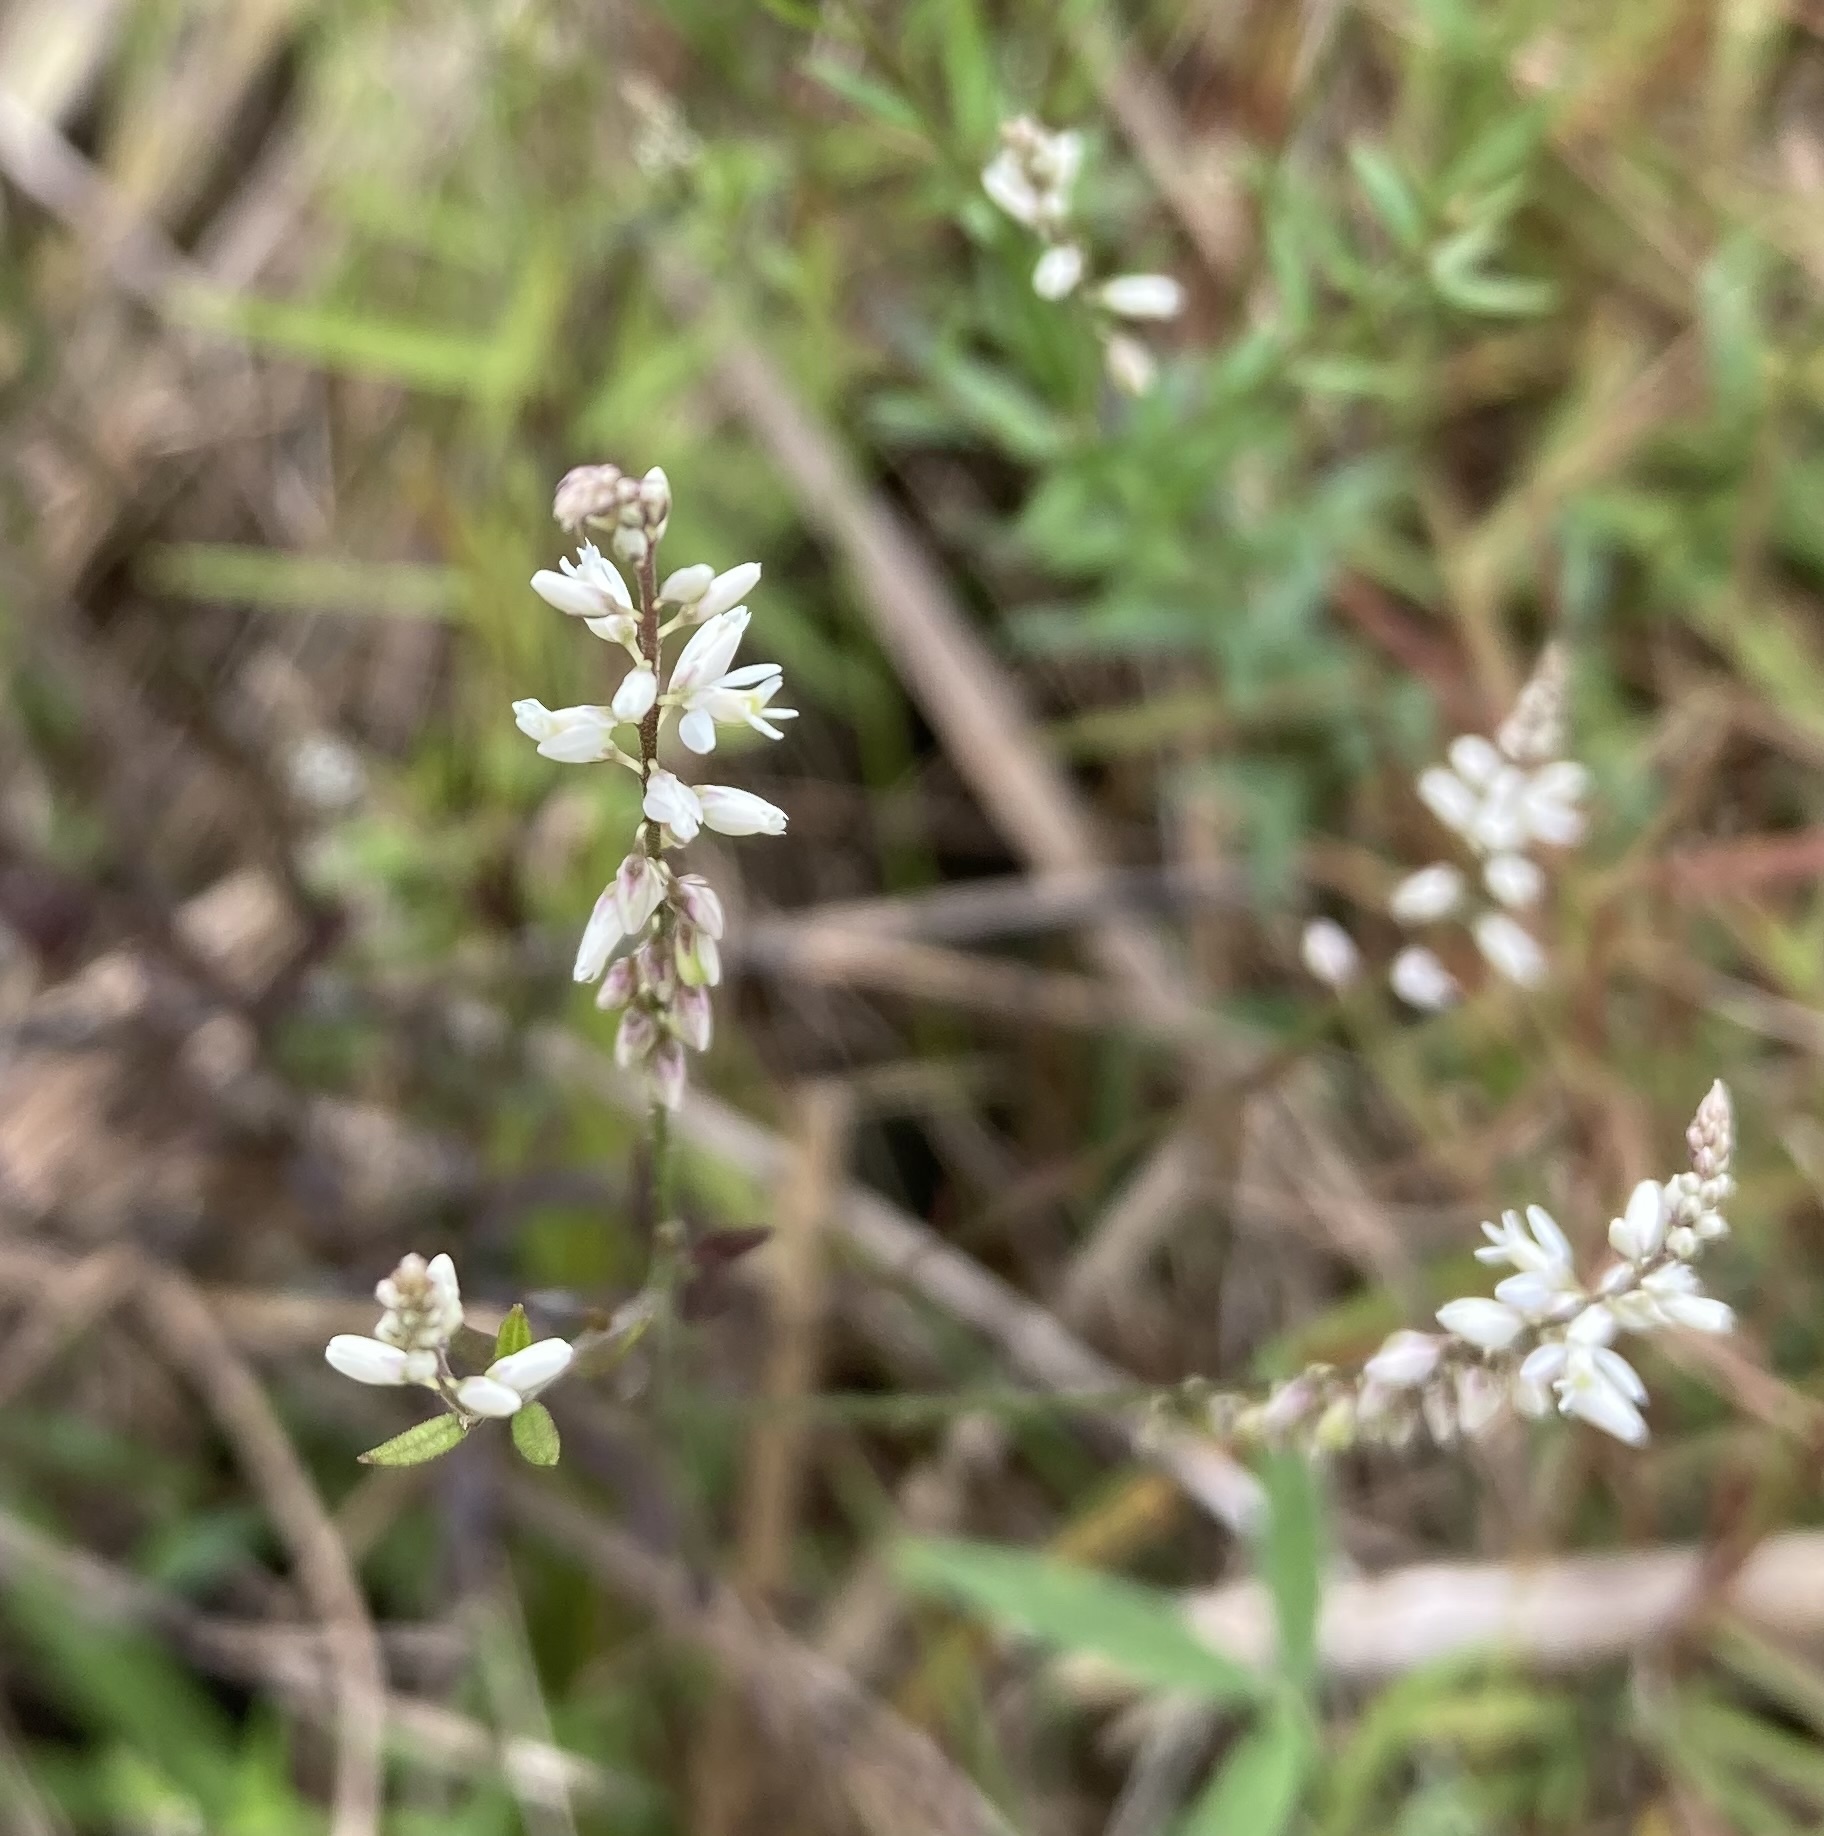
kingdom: Plantae
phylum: Tracheophyta
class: Magnoliopsida
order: Fabales
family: Polygalaceae
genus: Polygala
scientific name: Polygala paniculata
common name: Orosne
